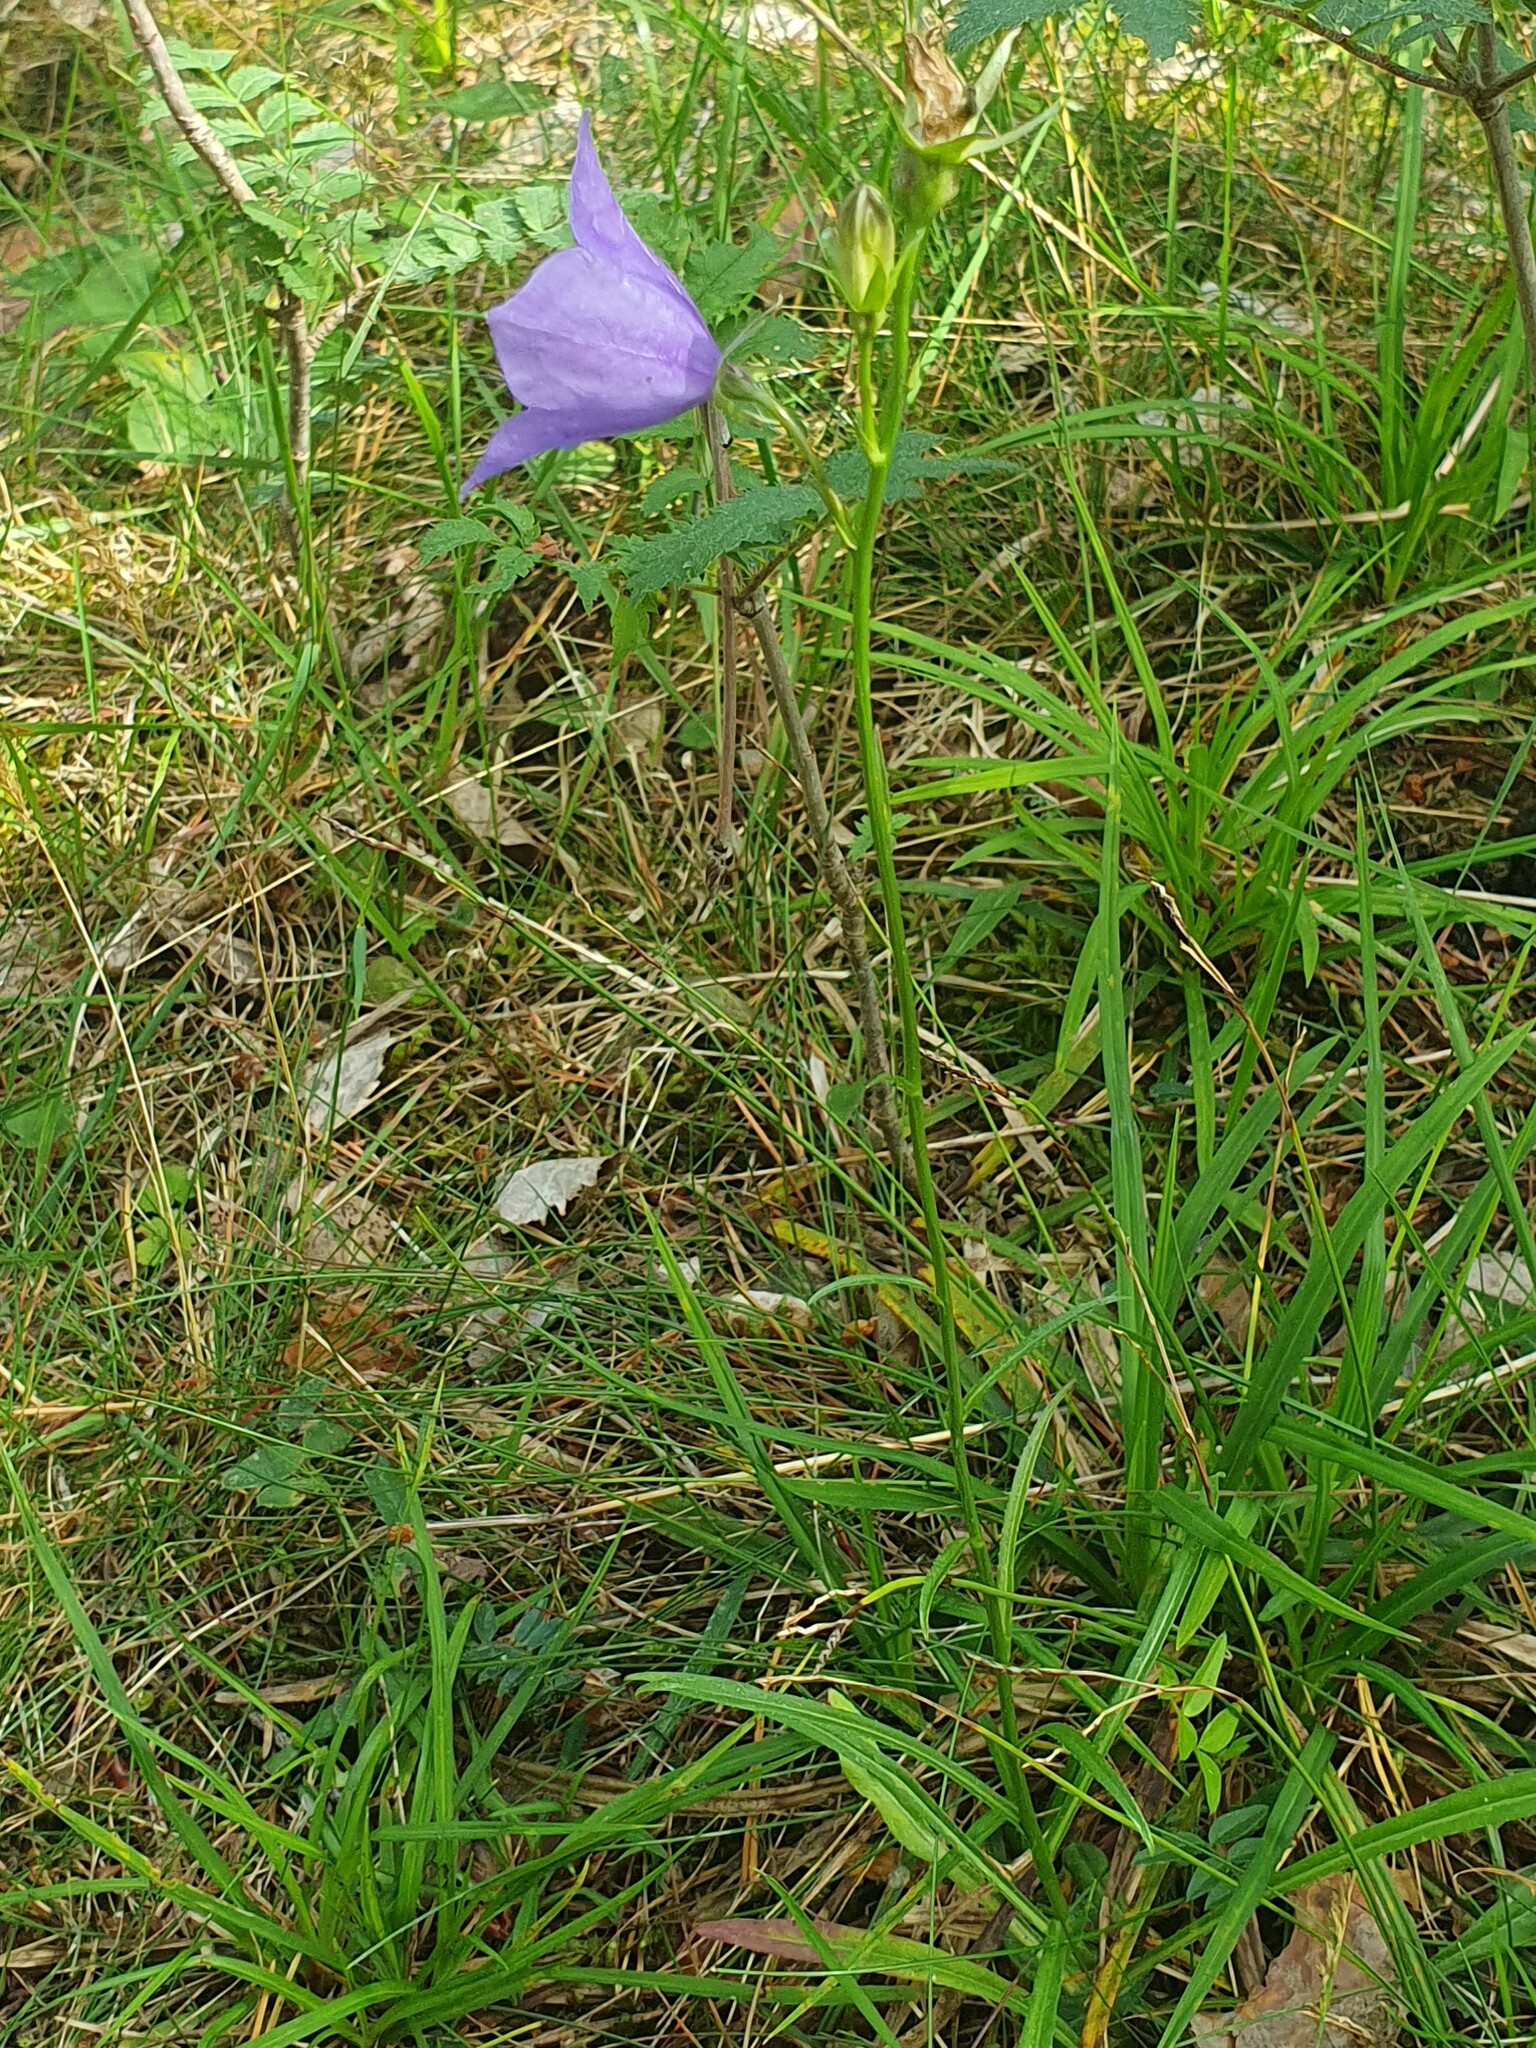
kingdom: Plantae
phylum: Tracheophyta
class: Magnoliopsida
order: Asterales
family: Campanulaceae
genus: Campanula
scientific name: Campanula persicifolia
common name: Peach-leaved bellflower
